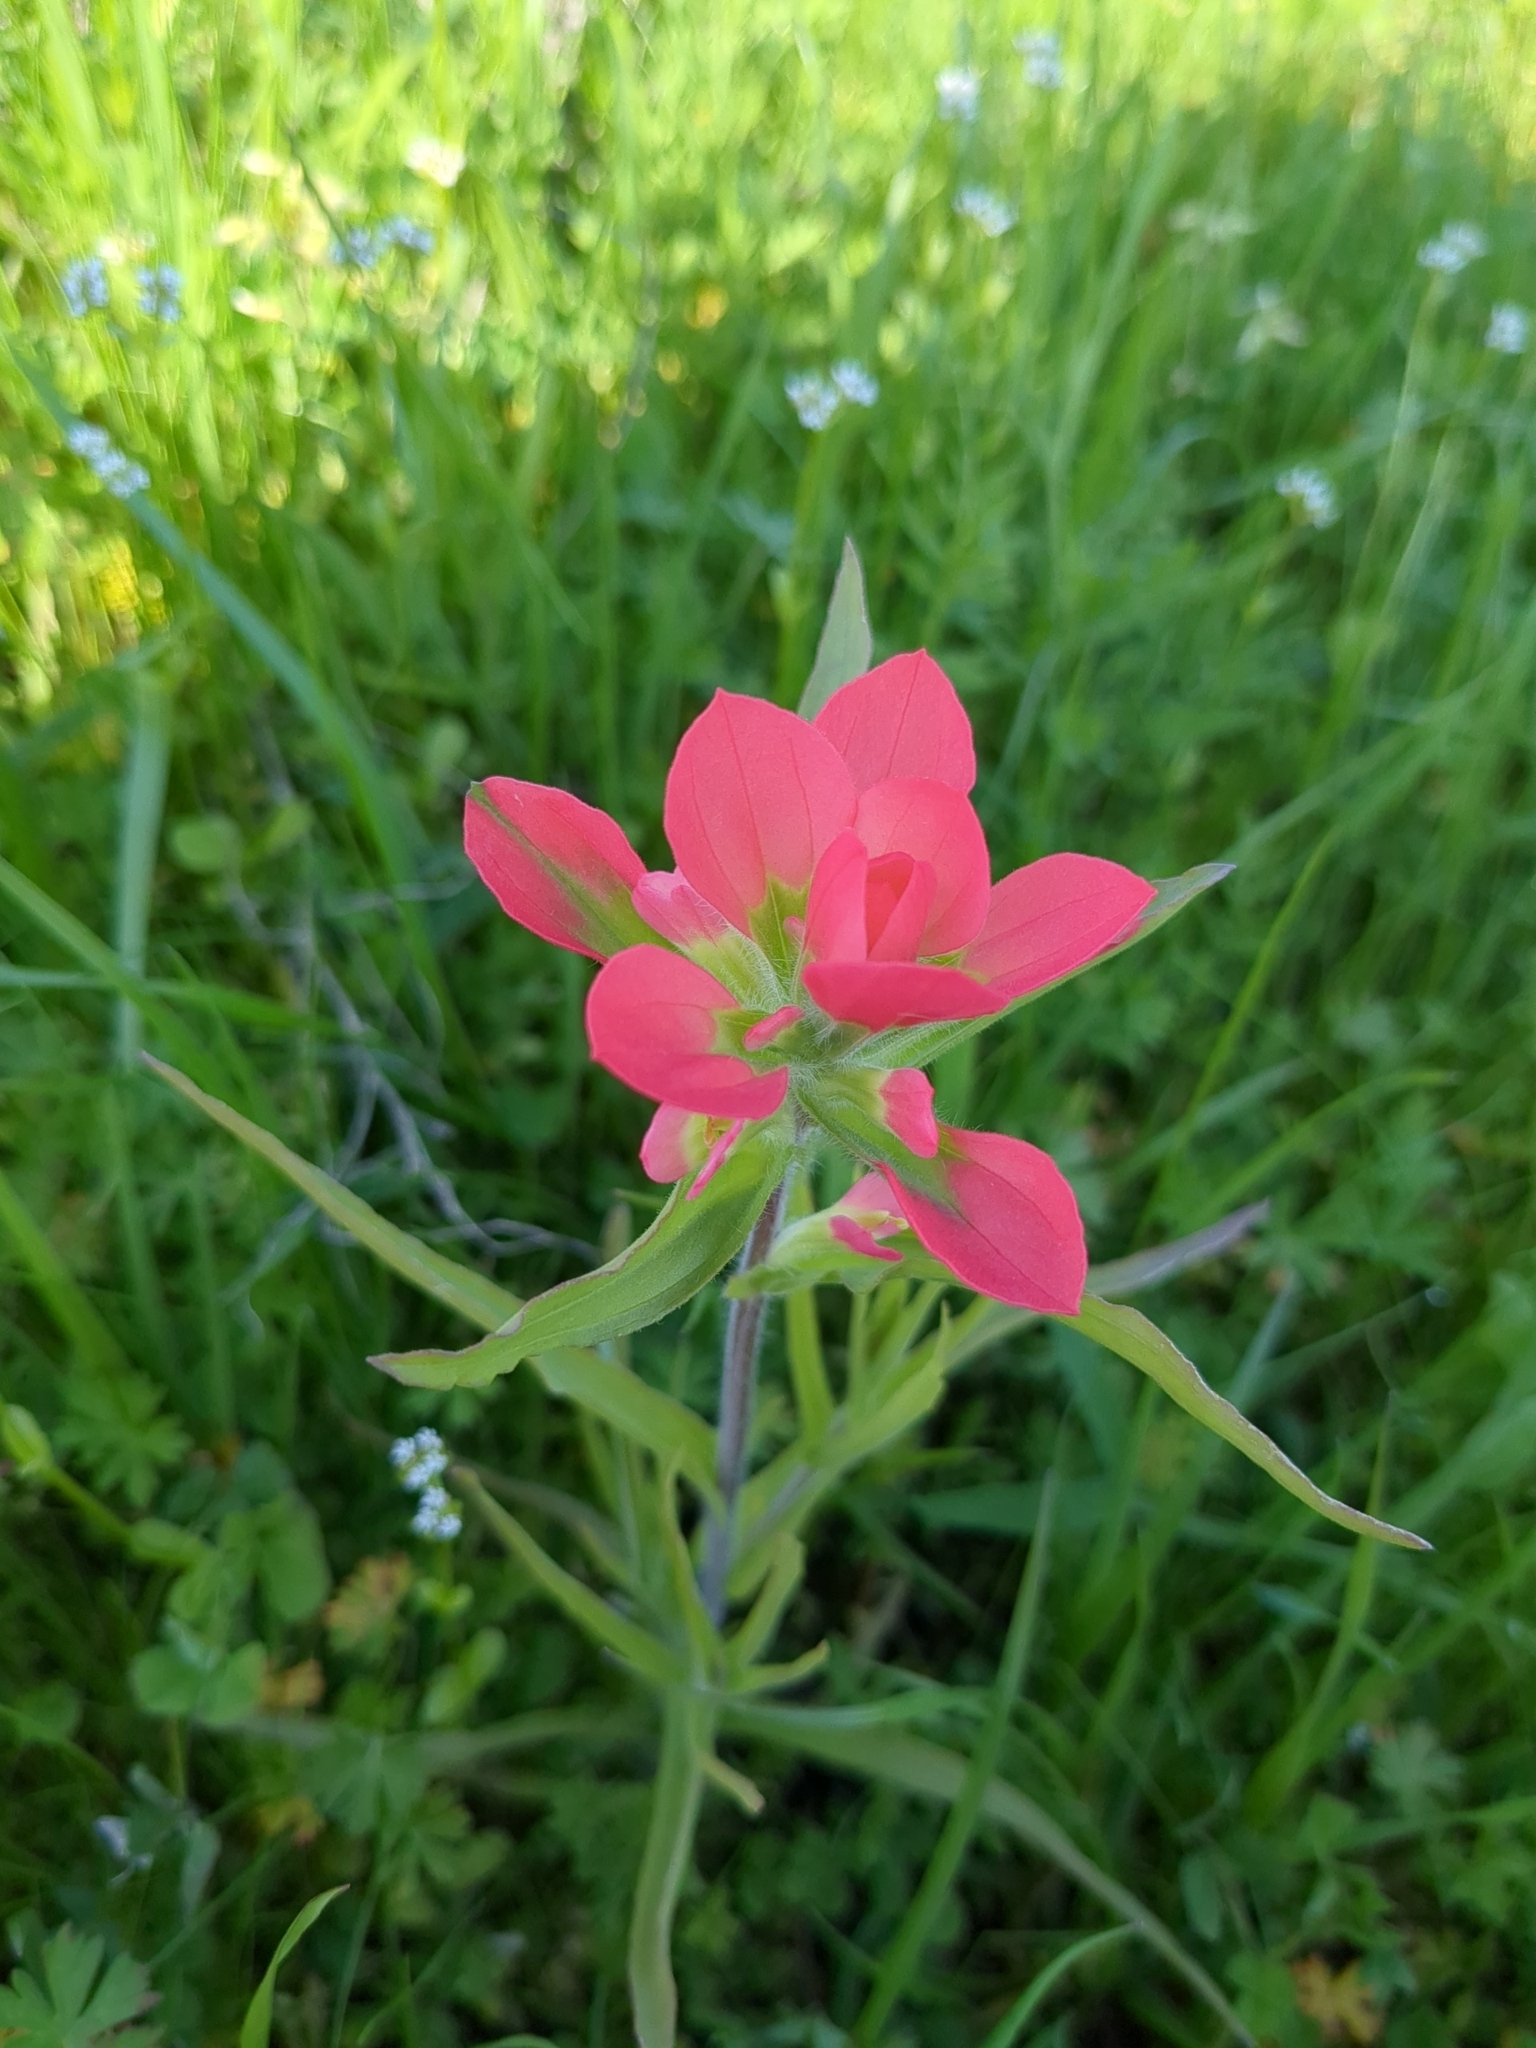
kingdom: Plantae
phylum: Tracheophyta
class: Magnoliopsida
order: Lamiales
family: Orobanchaceae
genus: Castilleja
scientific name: Castilleja indivisa
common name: Texas paintbrush
